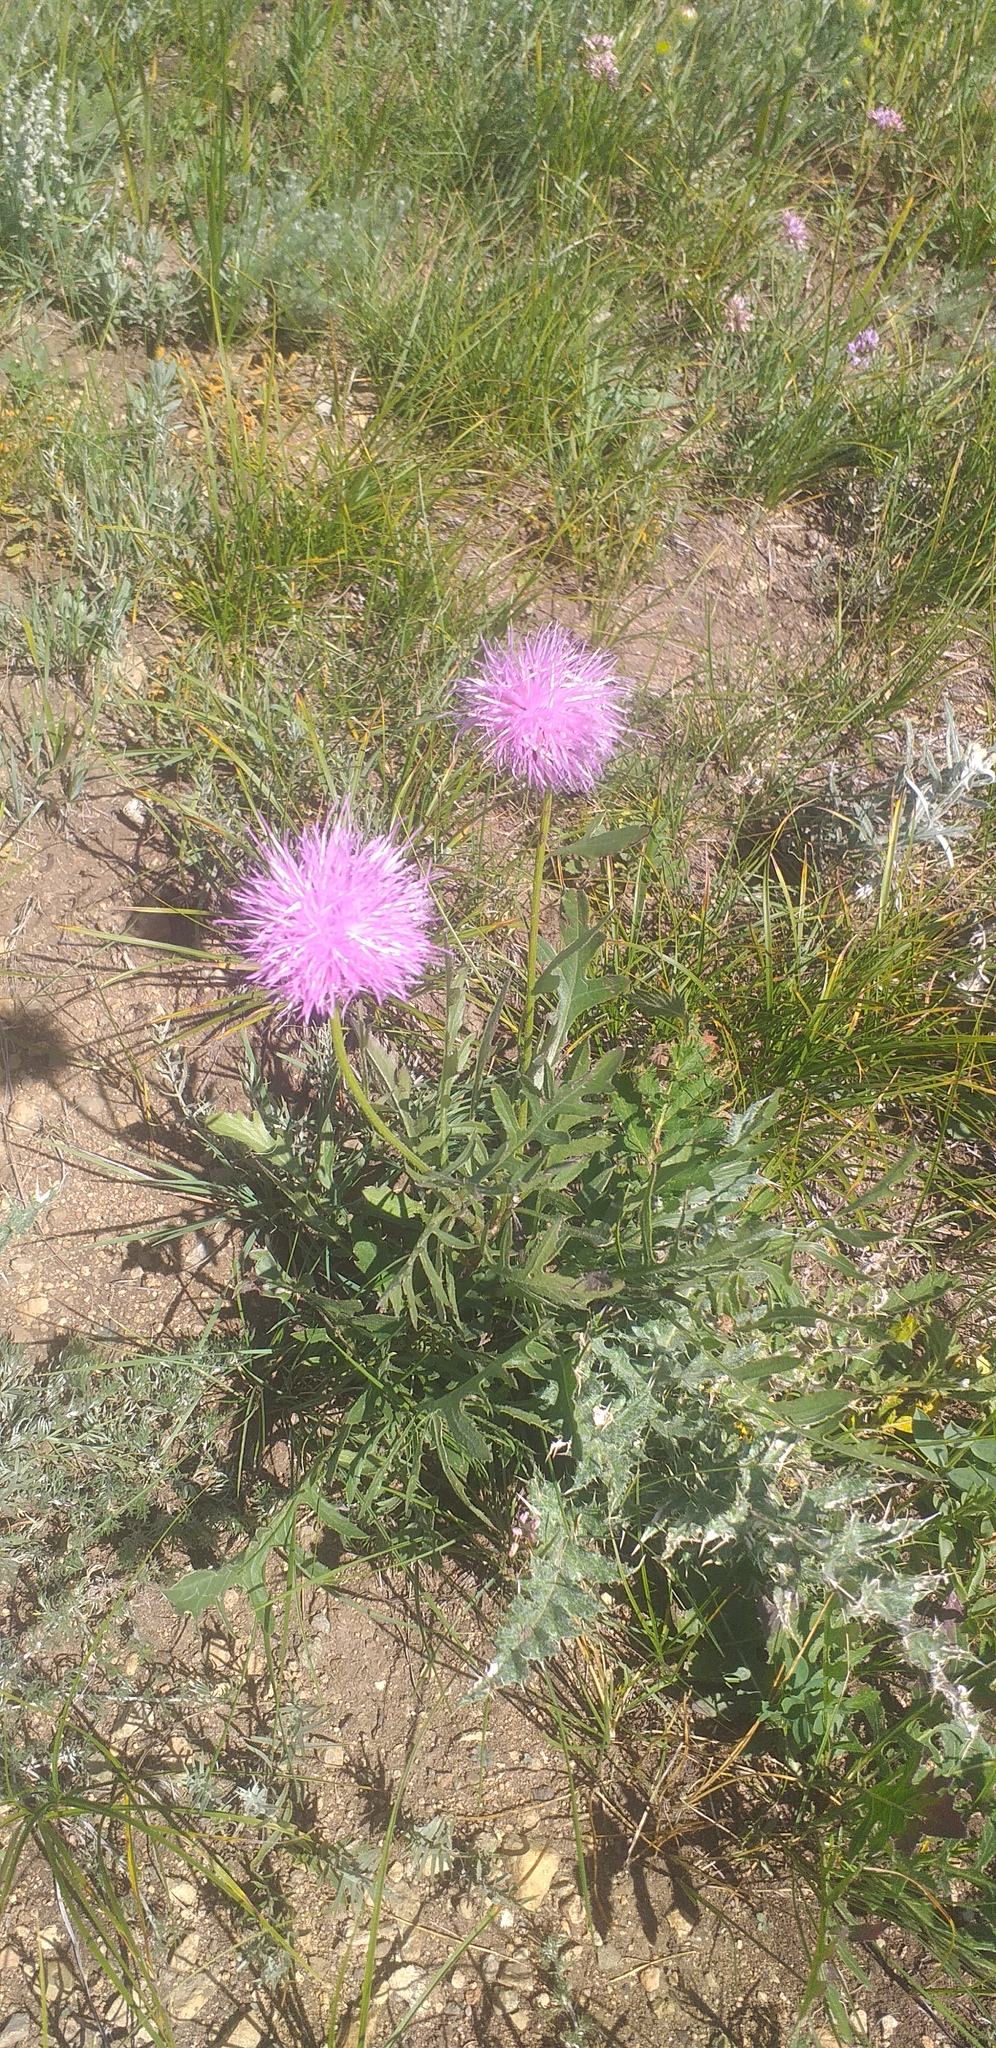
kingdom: Plantae
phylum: Tracheophyta
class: Magnoliopsida
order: Asterales
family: Asteraceae
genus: Klasea
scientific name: Klasea centauroides
